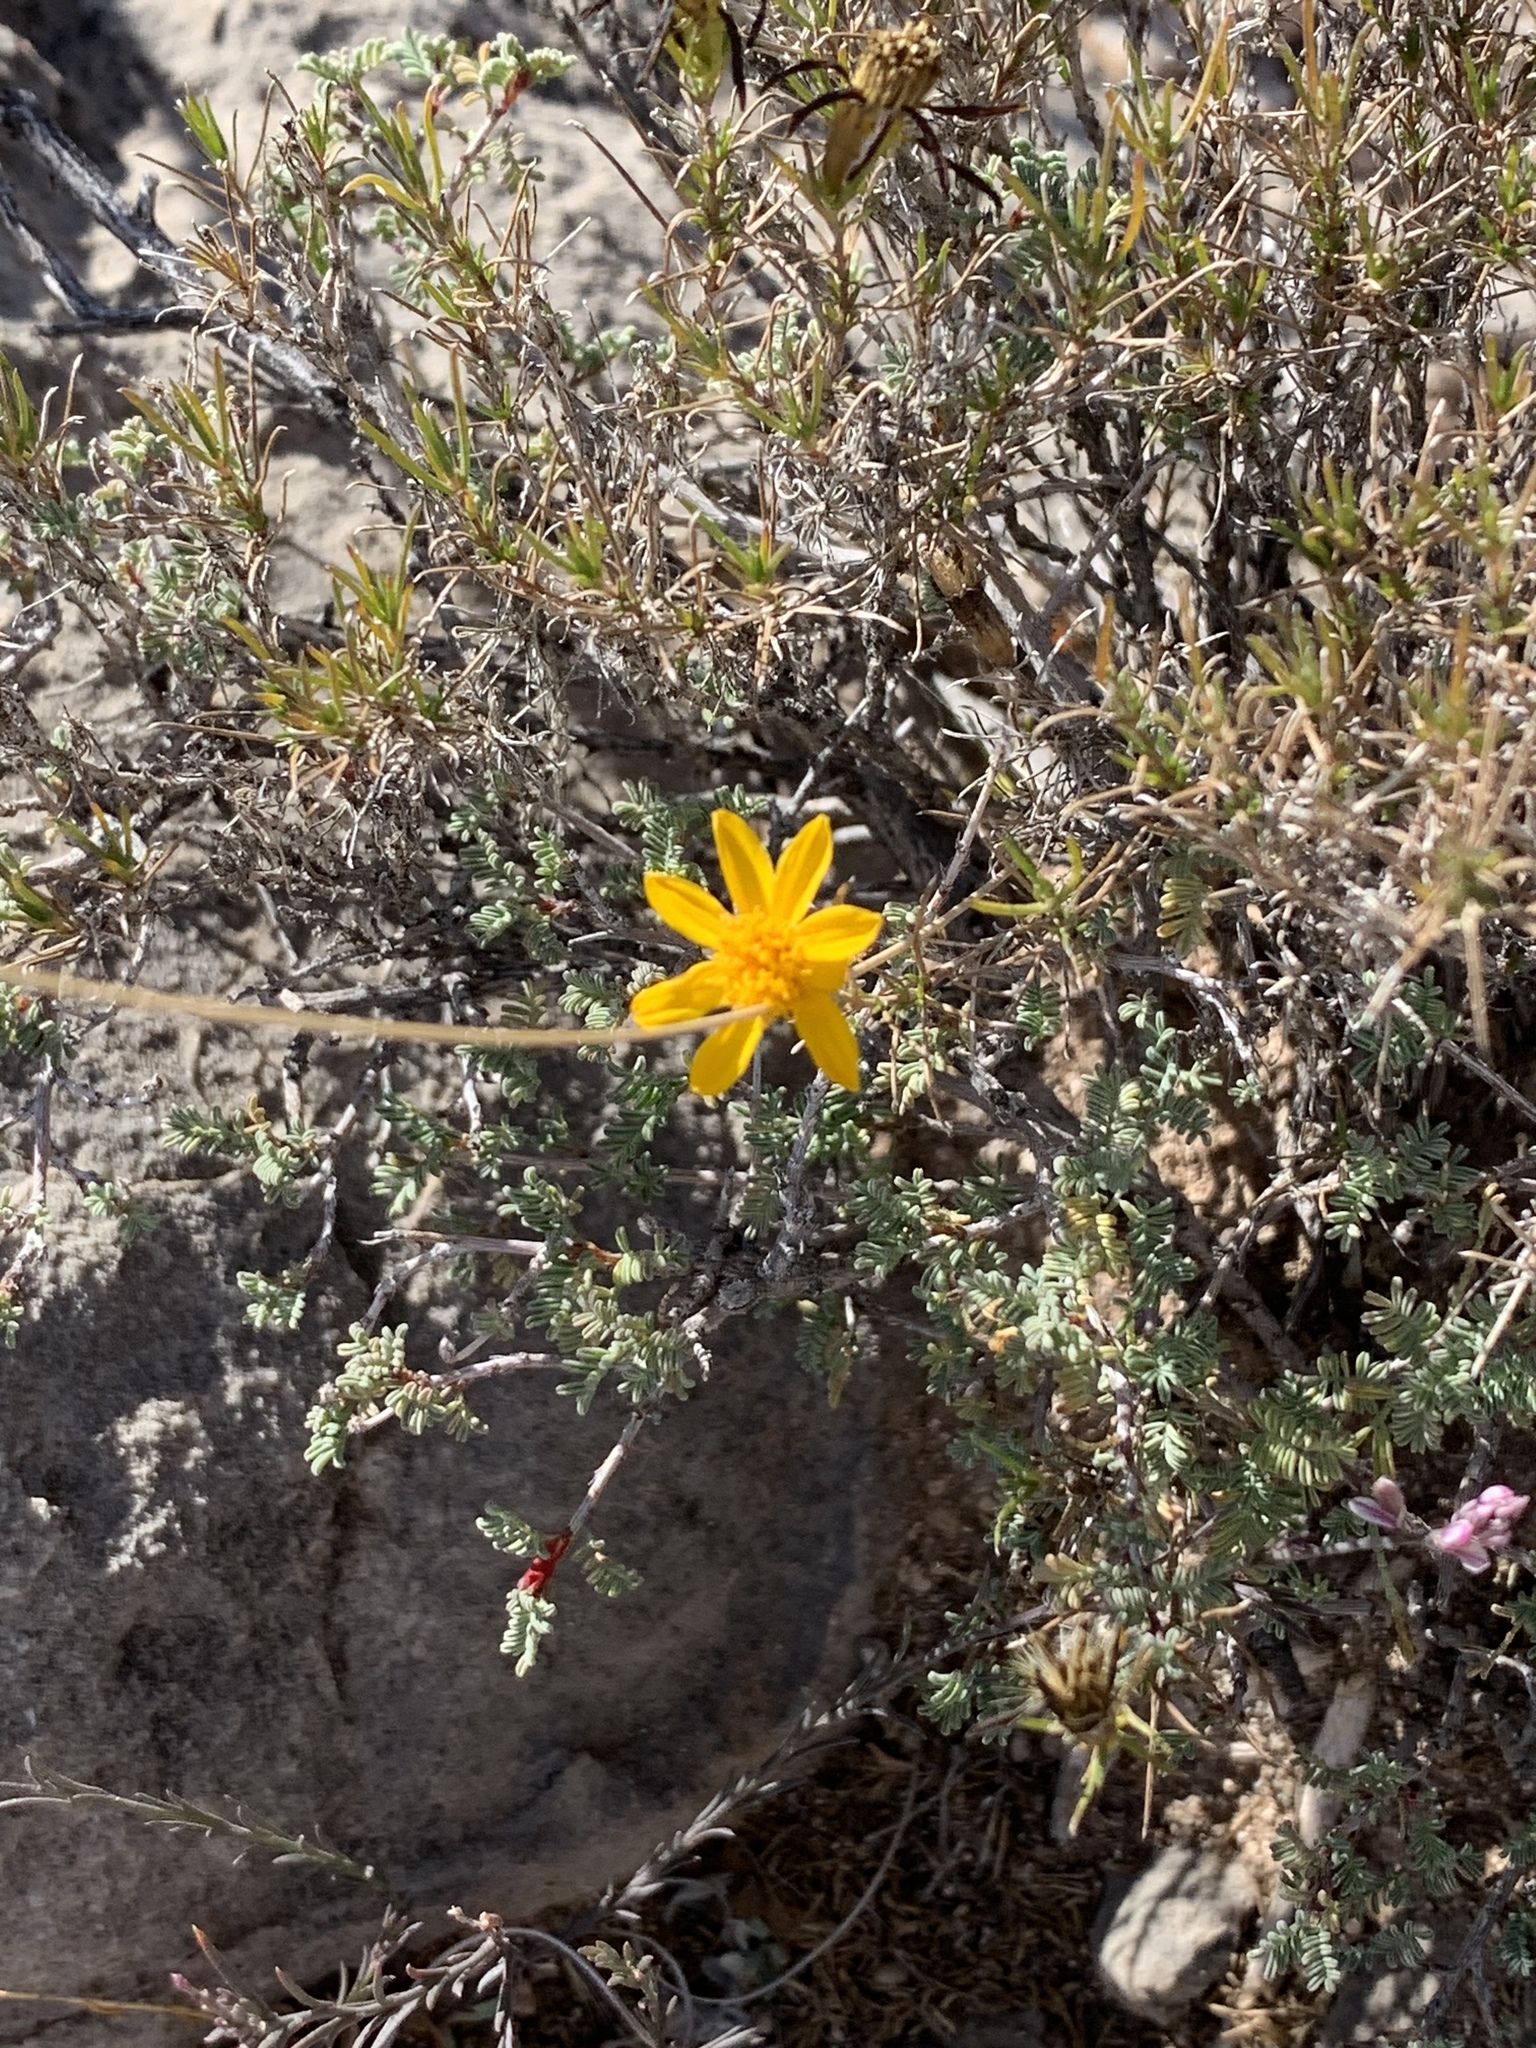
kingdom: Plantae
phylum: Tracheophyta
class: Magnoliopsida
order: Asterales
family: Asteraceae
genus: Thymophylla
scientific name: Thymophylla acerosa
